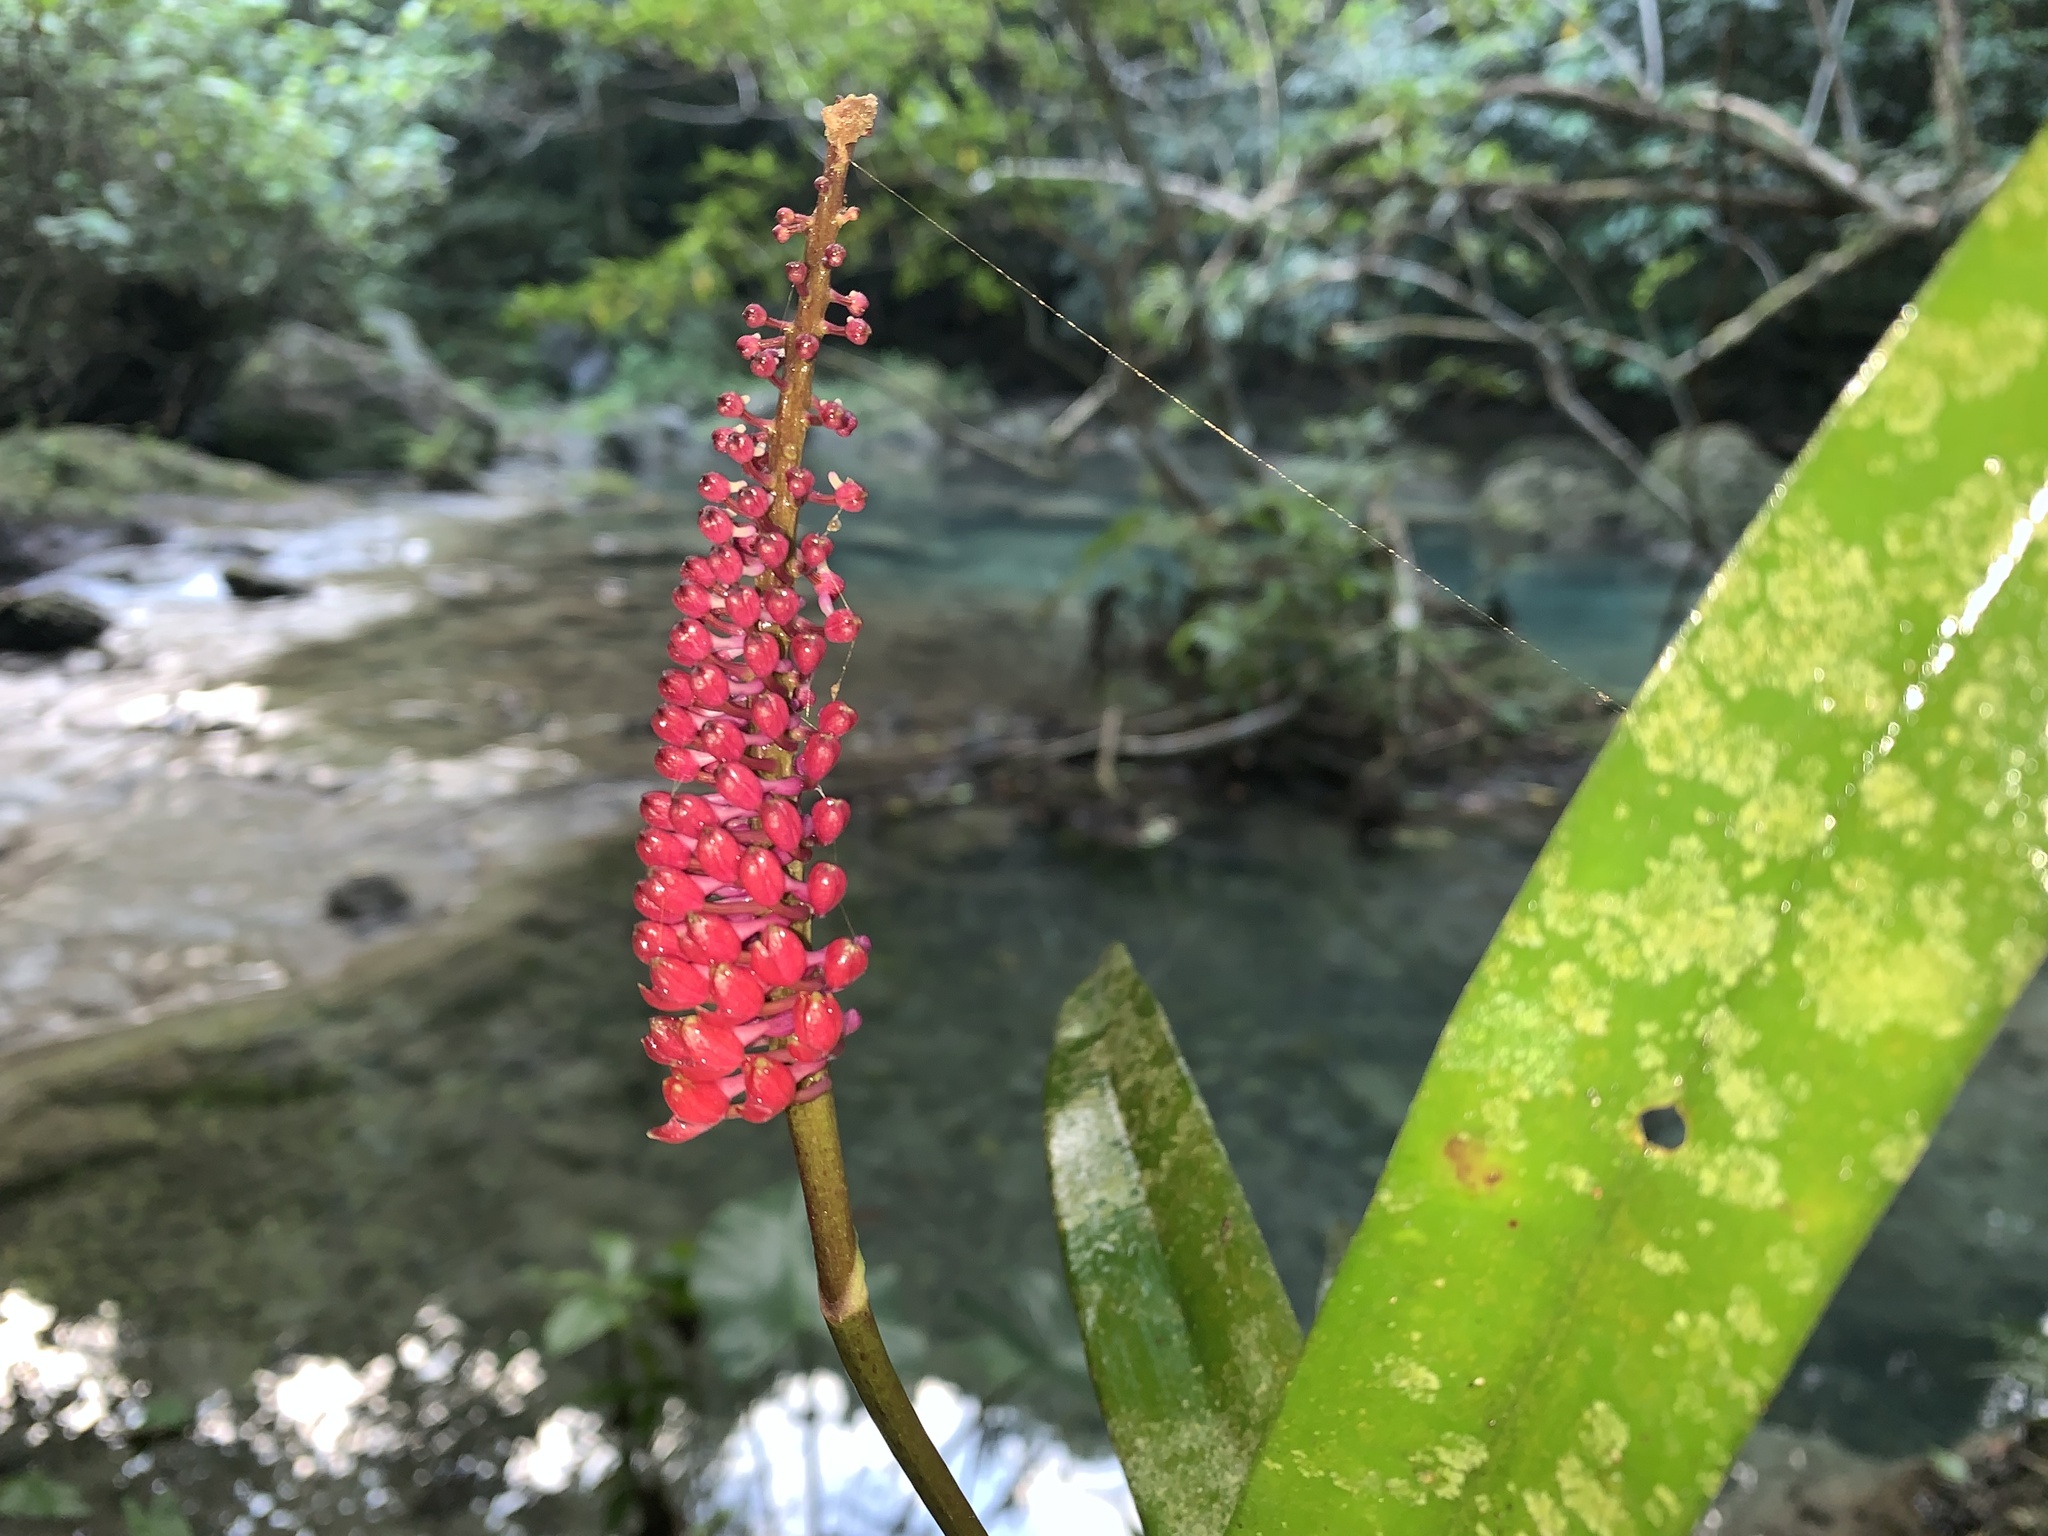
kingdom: Plantae
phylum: Tracheophyta
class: Liliopsida
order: Asparagales
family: Orchidaceae
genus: Robiquetia
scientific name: Robiquetia bertholdii
